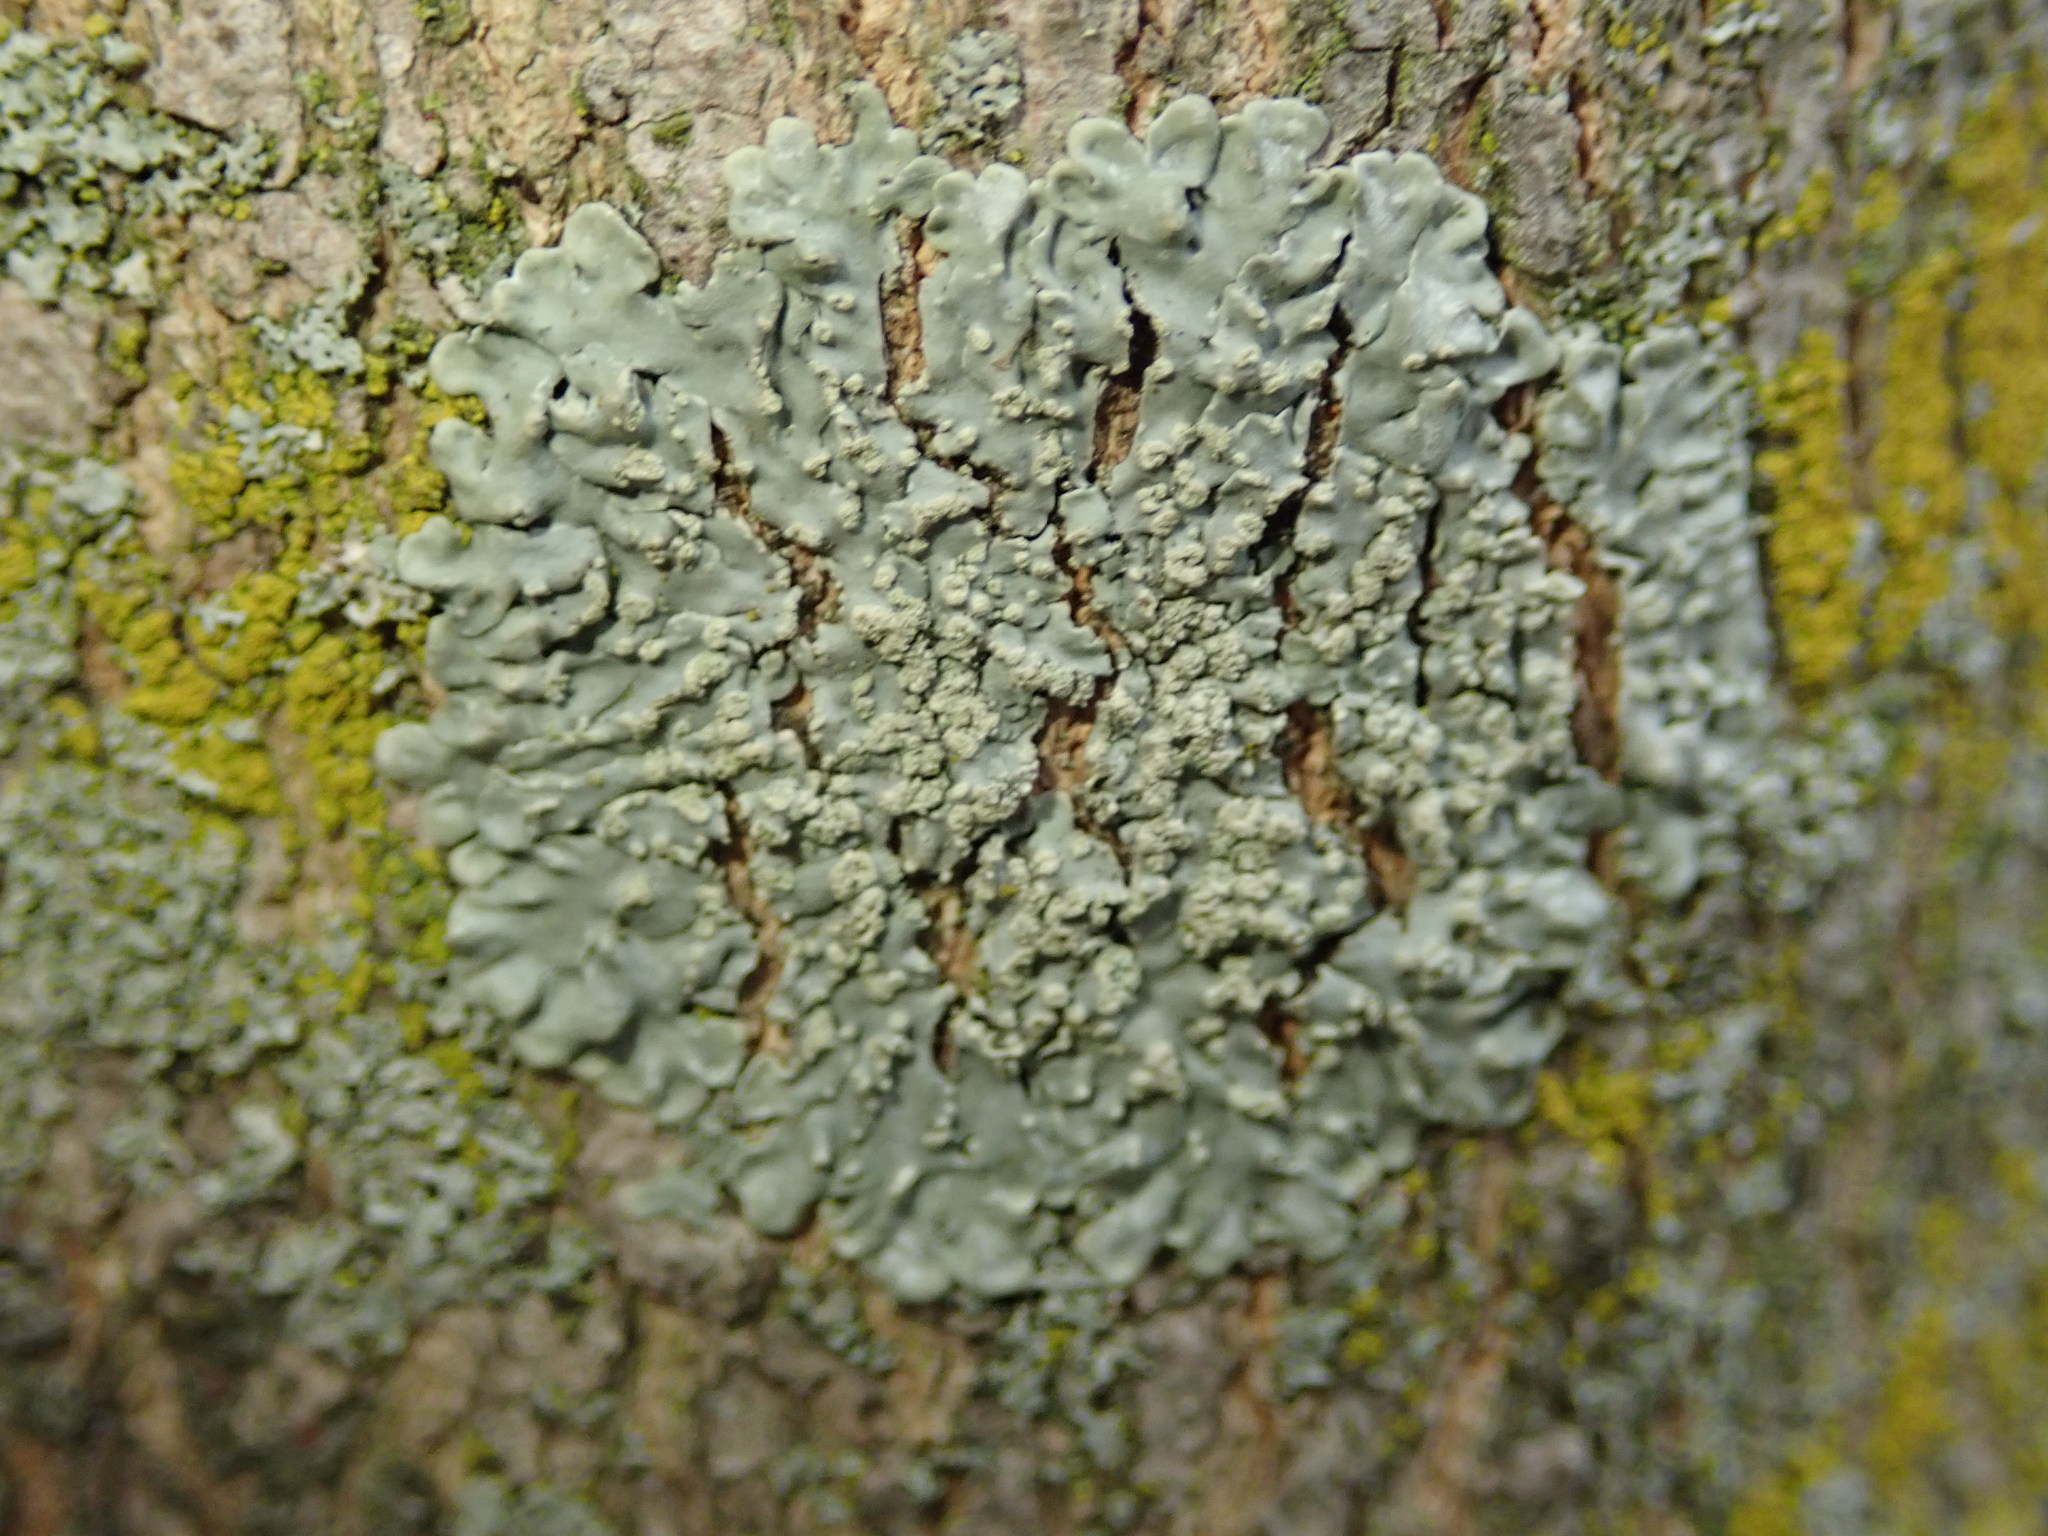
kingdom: Fungi
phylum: Ascomycota
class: Lecanoromycetes
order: Caliciales
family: Caliciaceae
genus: Pyxine
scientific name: Pyxine sorediata
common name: Mustard lichen
